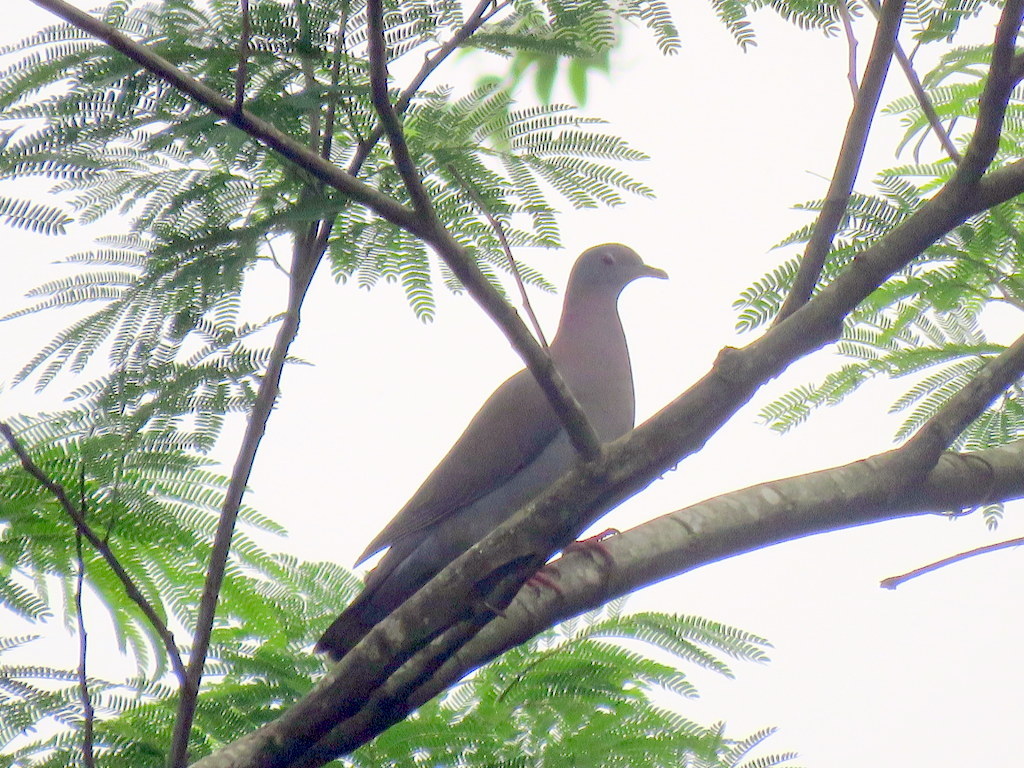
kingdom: Animalia
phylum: Chordata
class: Aves
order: Columbiformes
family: Columbidae
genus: Patagioenas
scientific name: Patagioenas cayennensis
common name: Pale-vented pigeon
